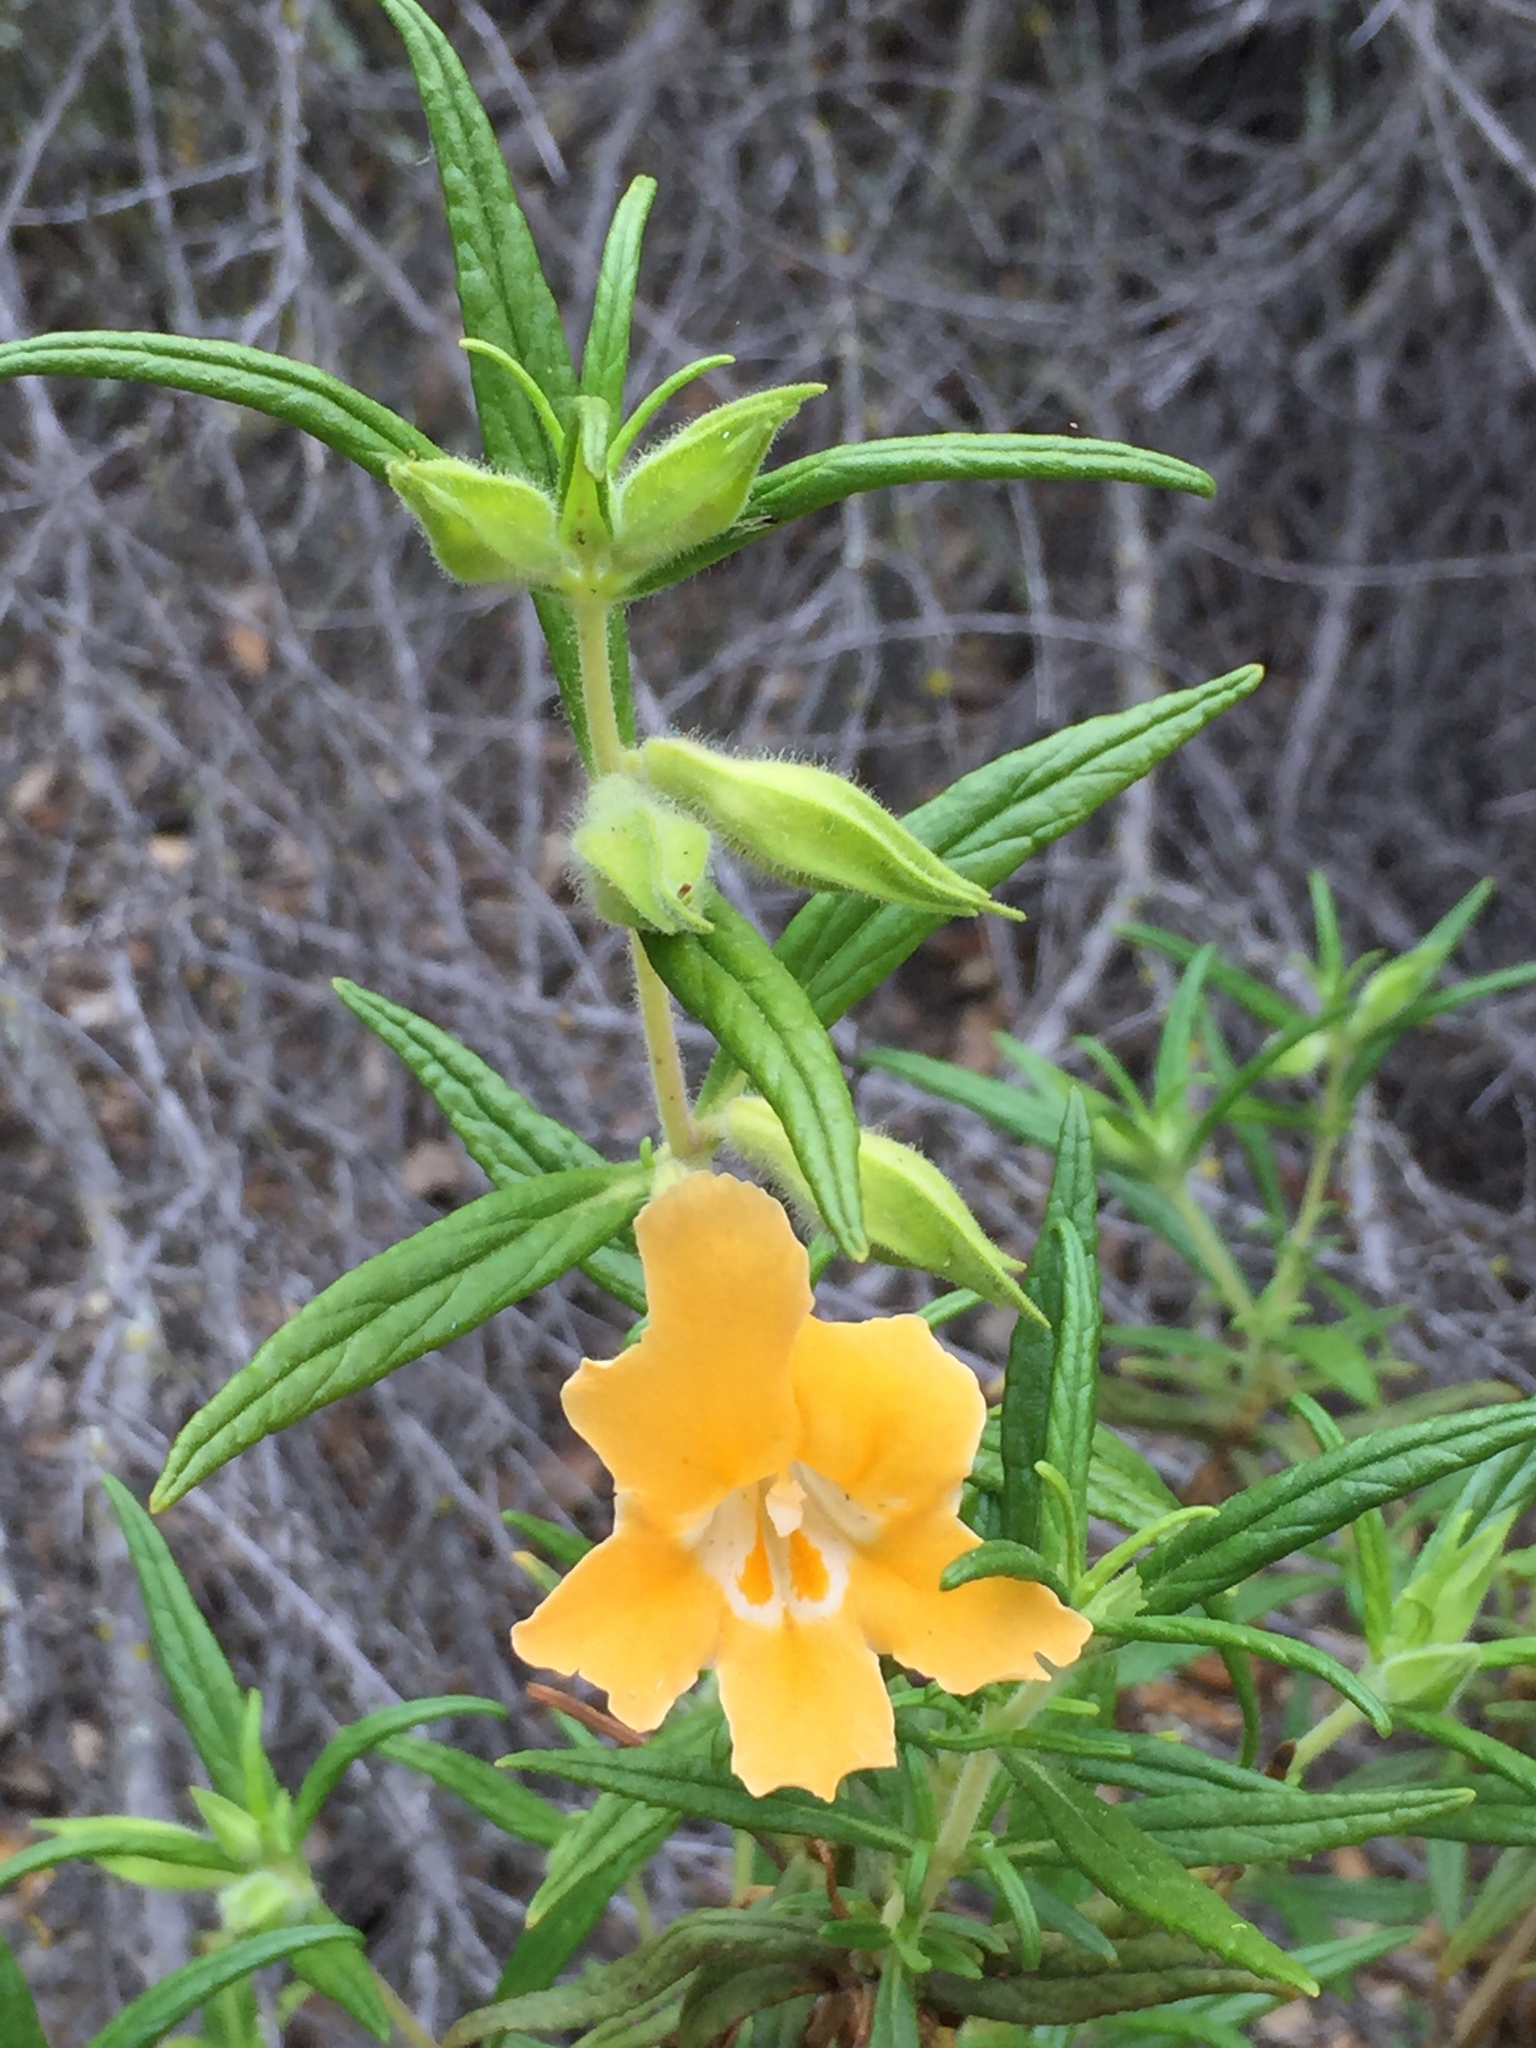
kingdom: Plantae
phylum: Tracheophyta
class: Magnoliopsida
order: Lamiales
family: Phrymaceae
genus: Diplacus
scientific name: Diplacus longiflorus
